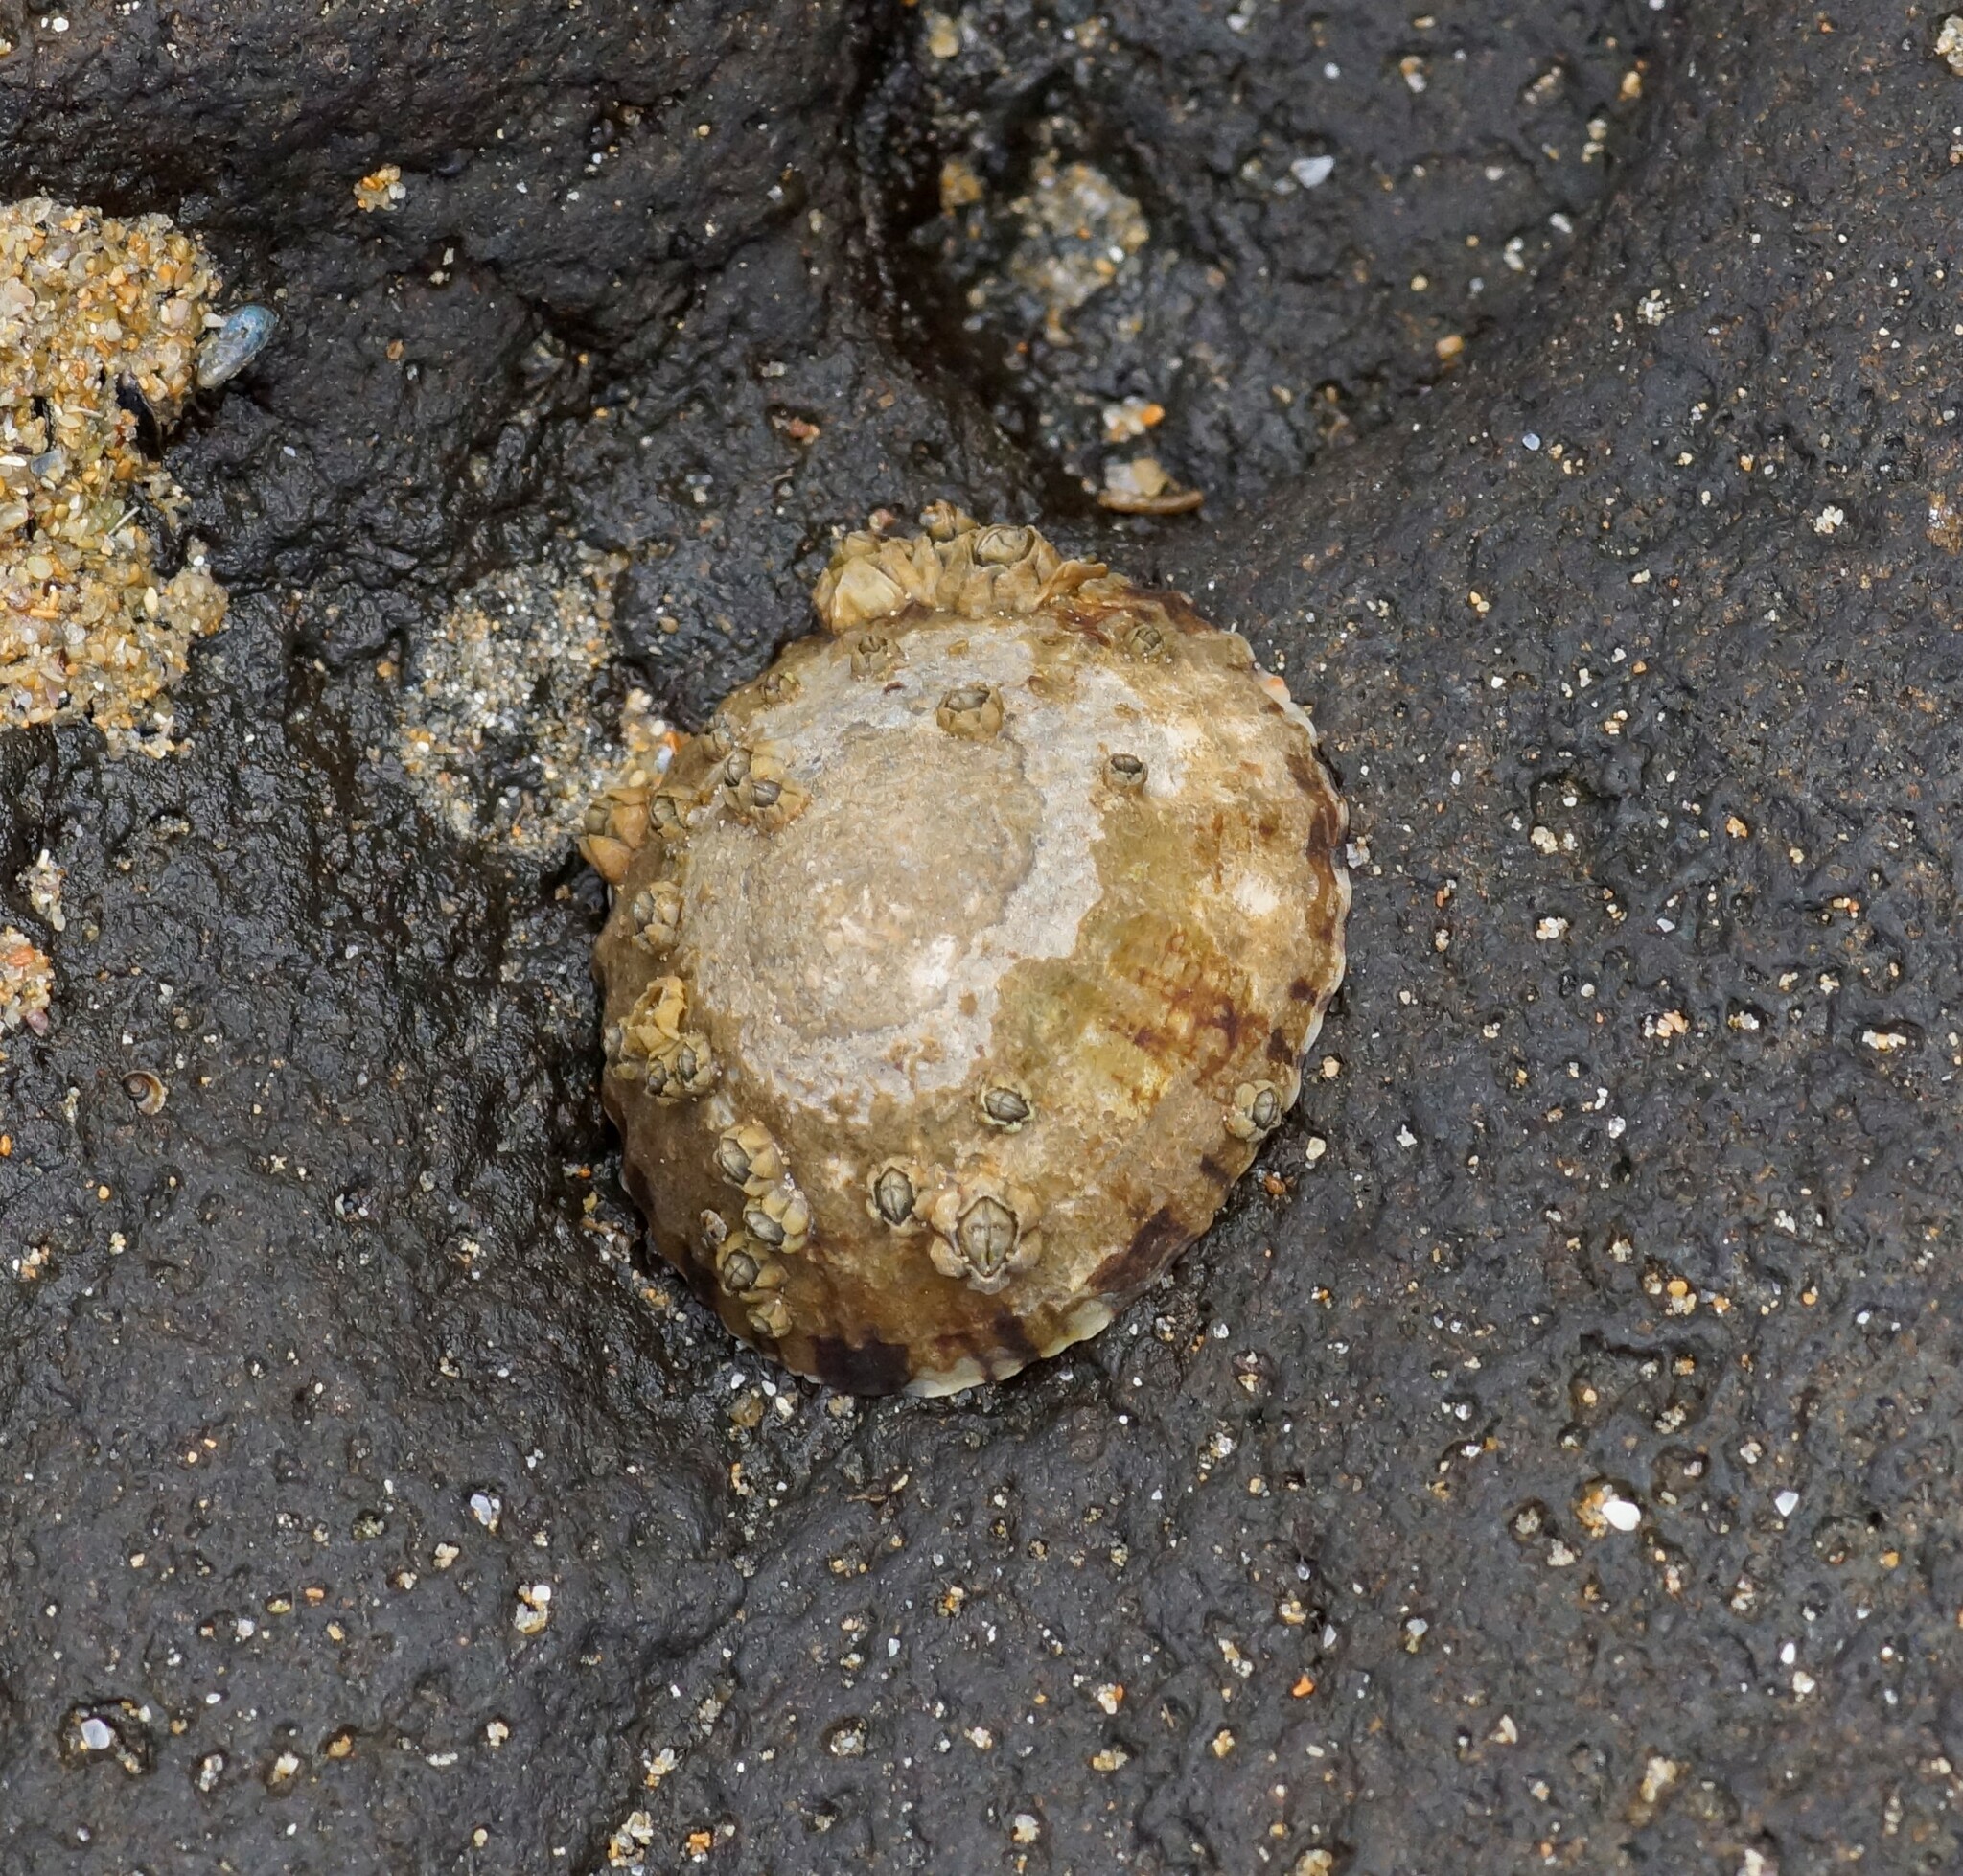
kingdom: Animalia
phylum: Mollusca
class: Gastropoda
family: Nacellidae
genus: Cellana
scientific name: Cellana tramoserica
